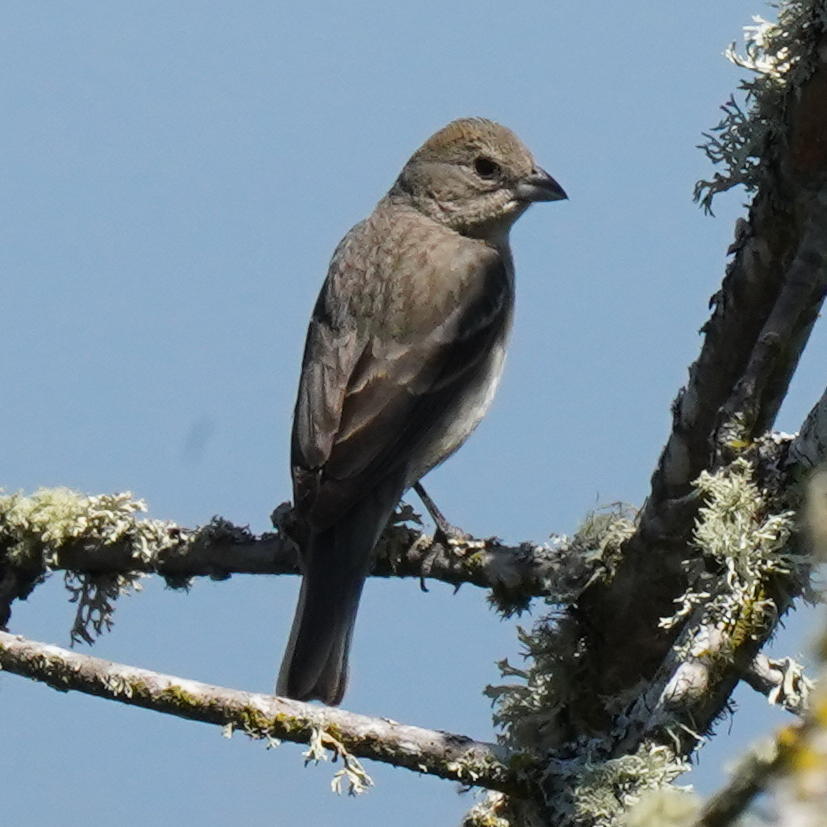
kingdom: Animalia
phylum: Chordata
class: Aves
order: Passeriformes
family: Cardinalidae
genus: Passerina
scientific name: Passerina amoena
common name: Lazuli bunting
